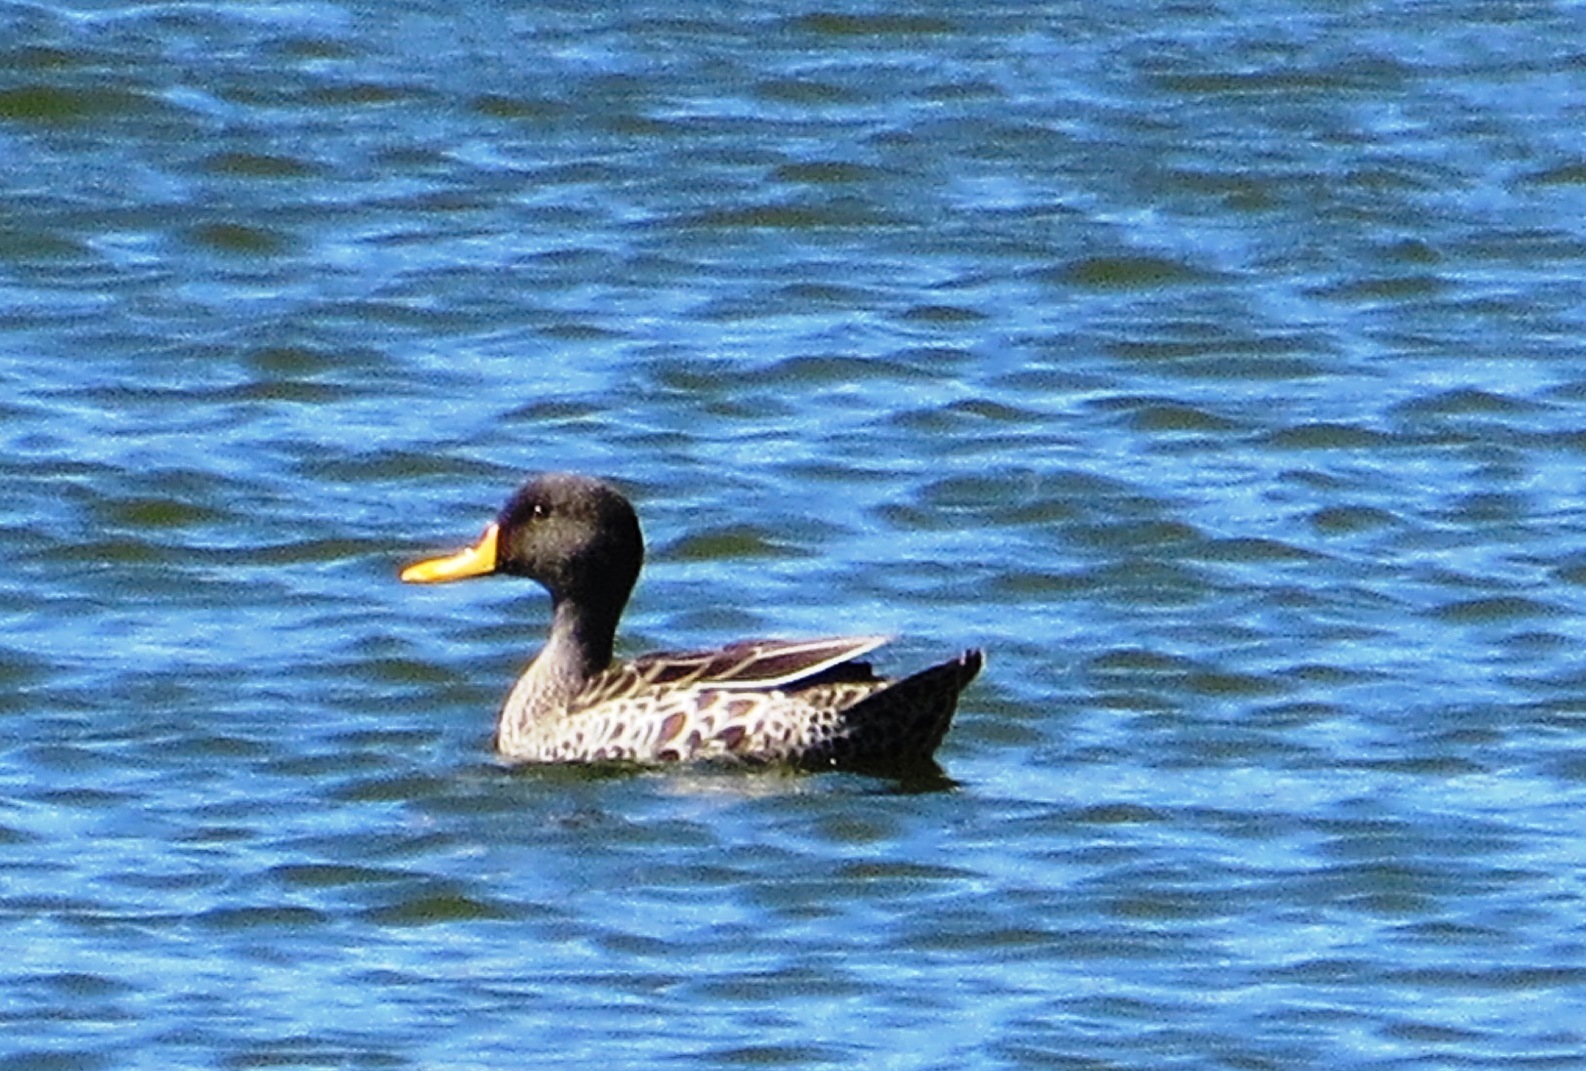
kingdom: Animalia
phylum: Chordata
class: Aves
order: Anseriformes
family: Anatidae
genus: Anas
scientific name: Anas undulata
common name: Yellow-billed duck
